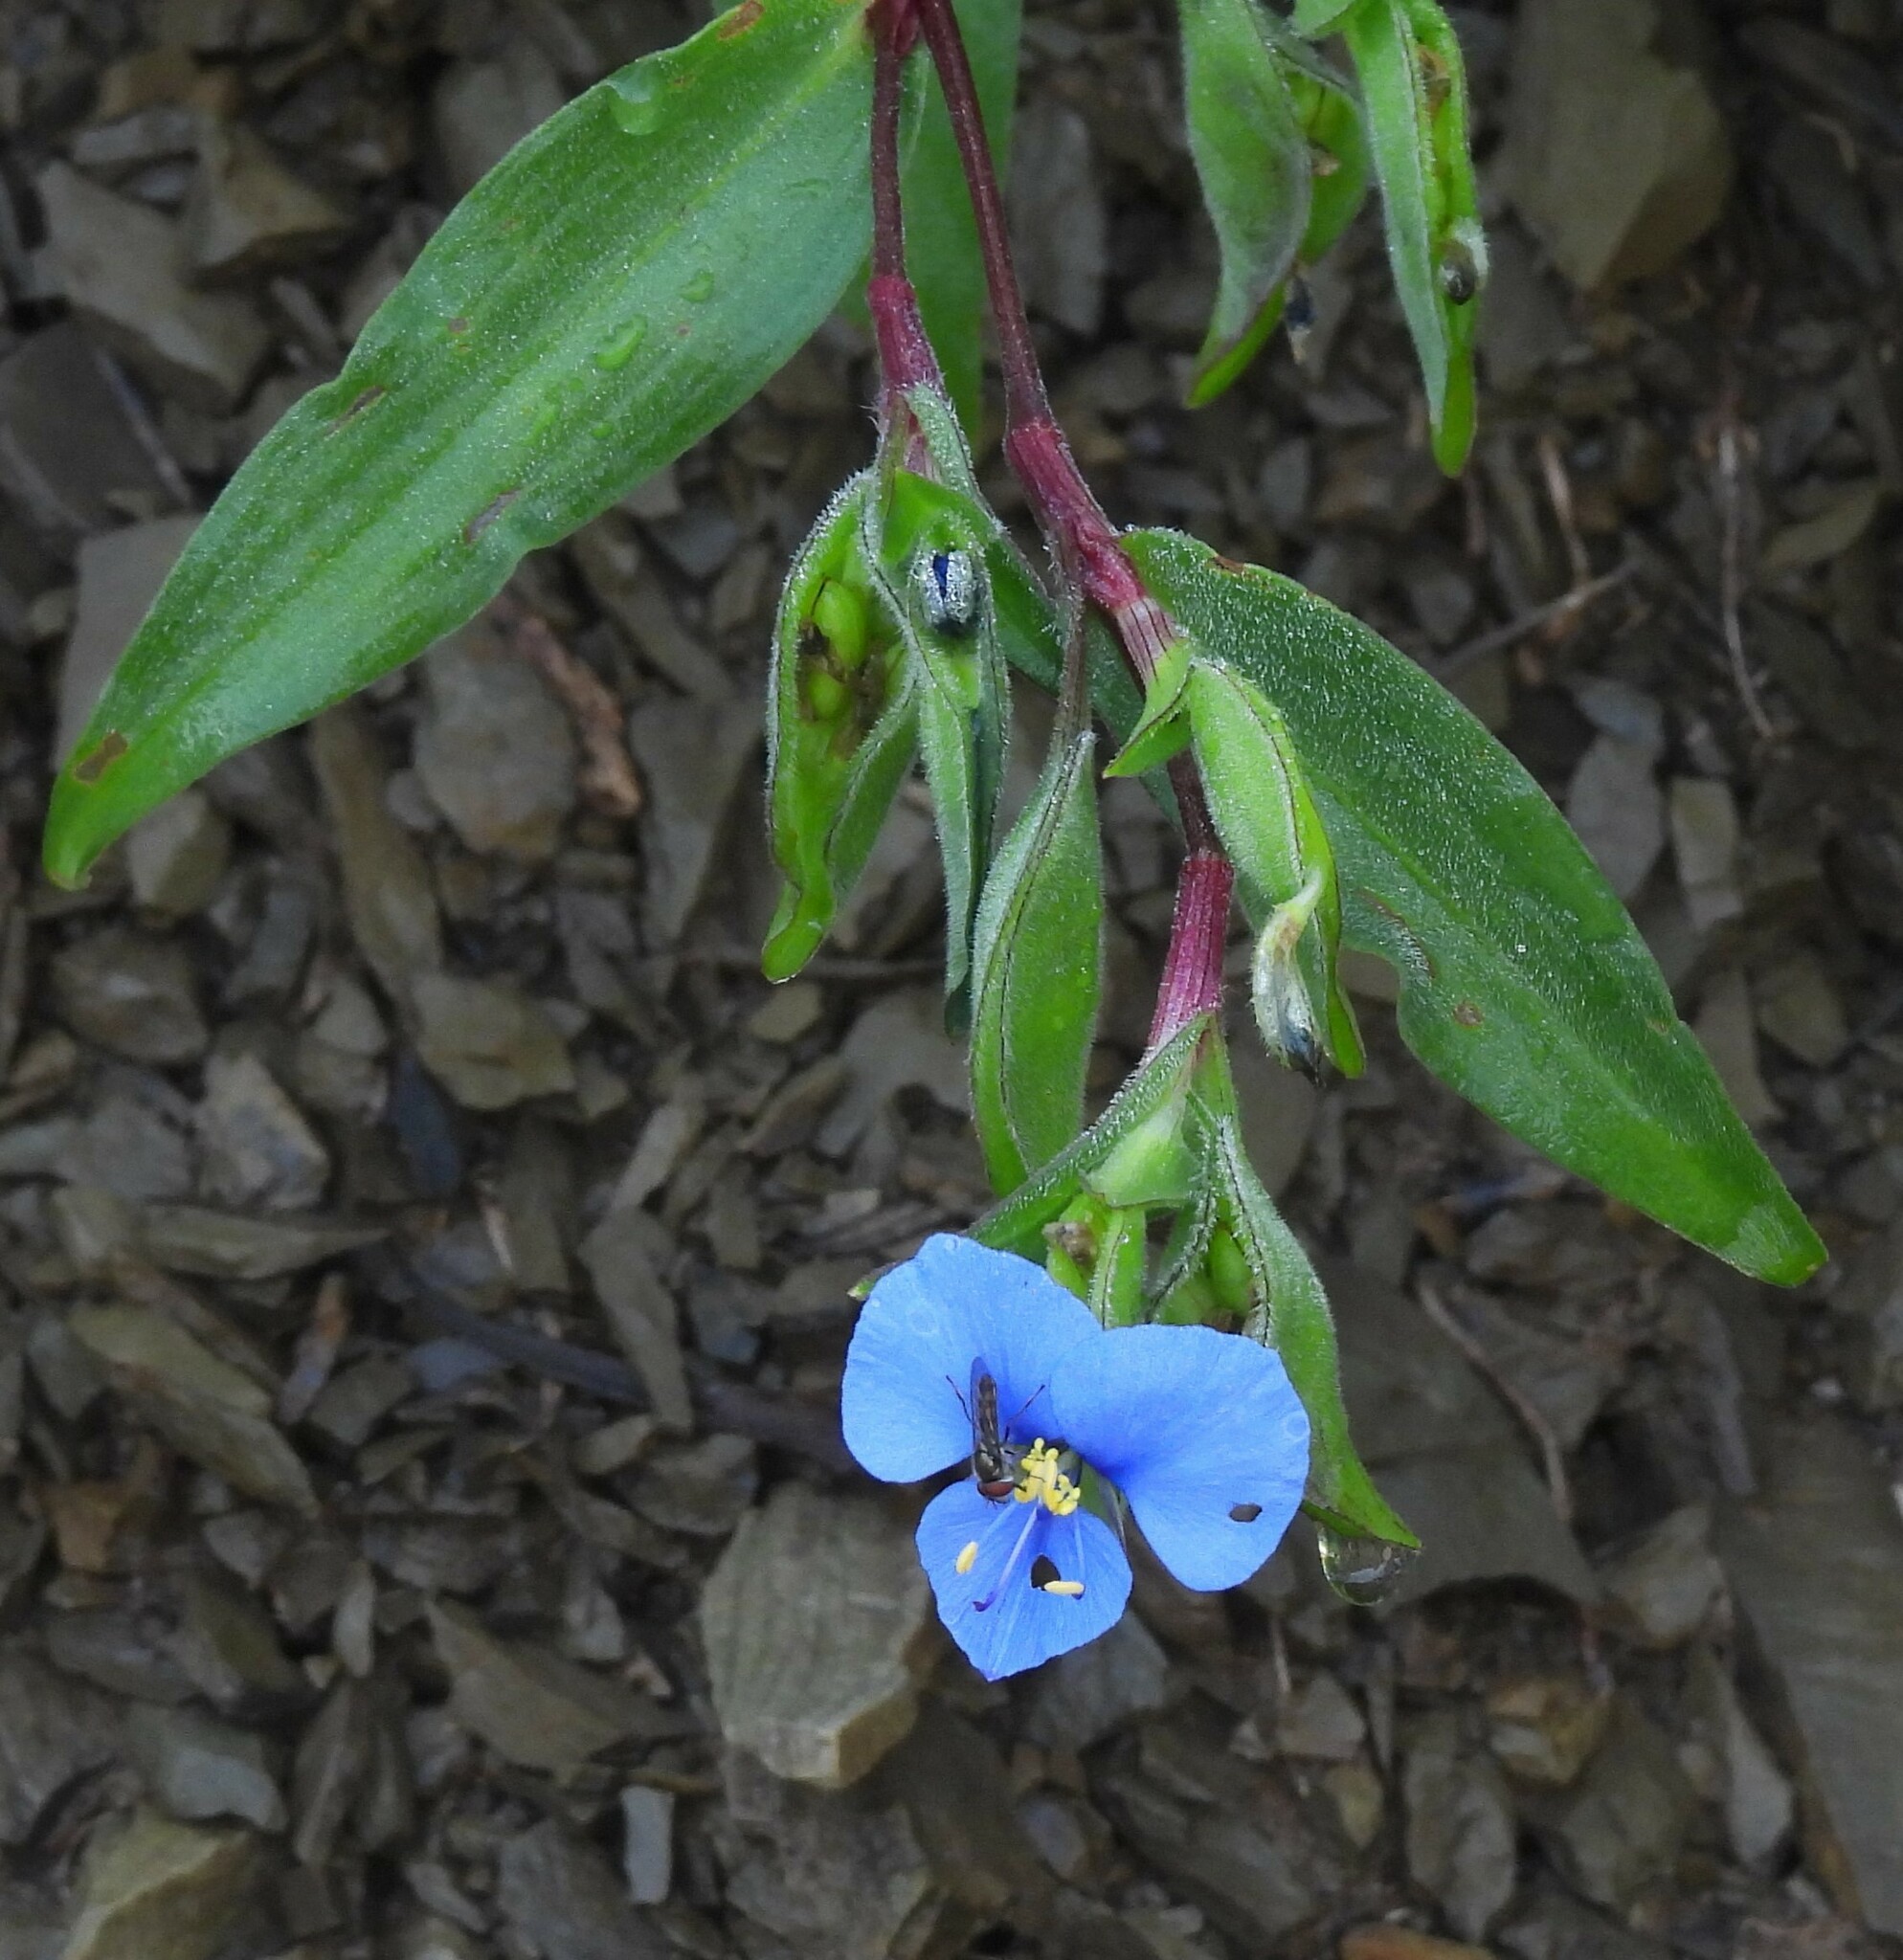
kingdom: Plantae
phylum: Tracheophyta
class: Liliopsida
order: Commelinales
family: Commelinaceae
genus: Commelina
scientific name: Commelina tuberosa
